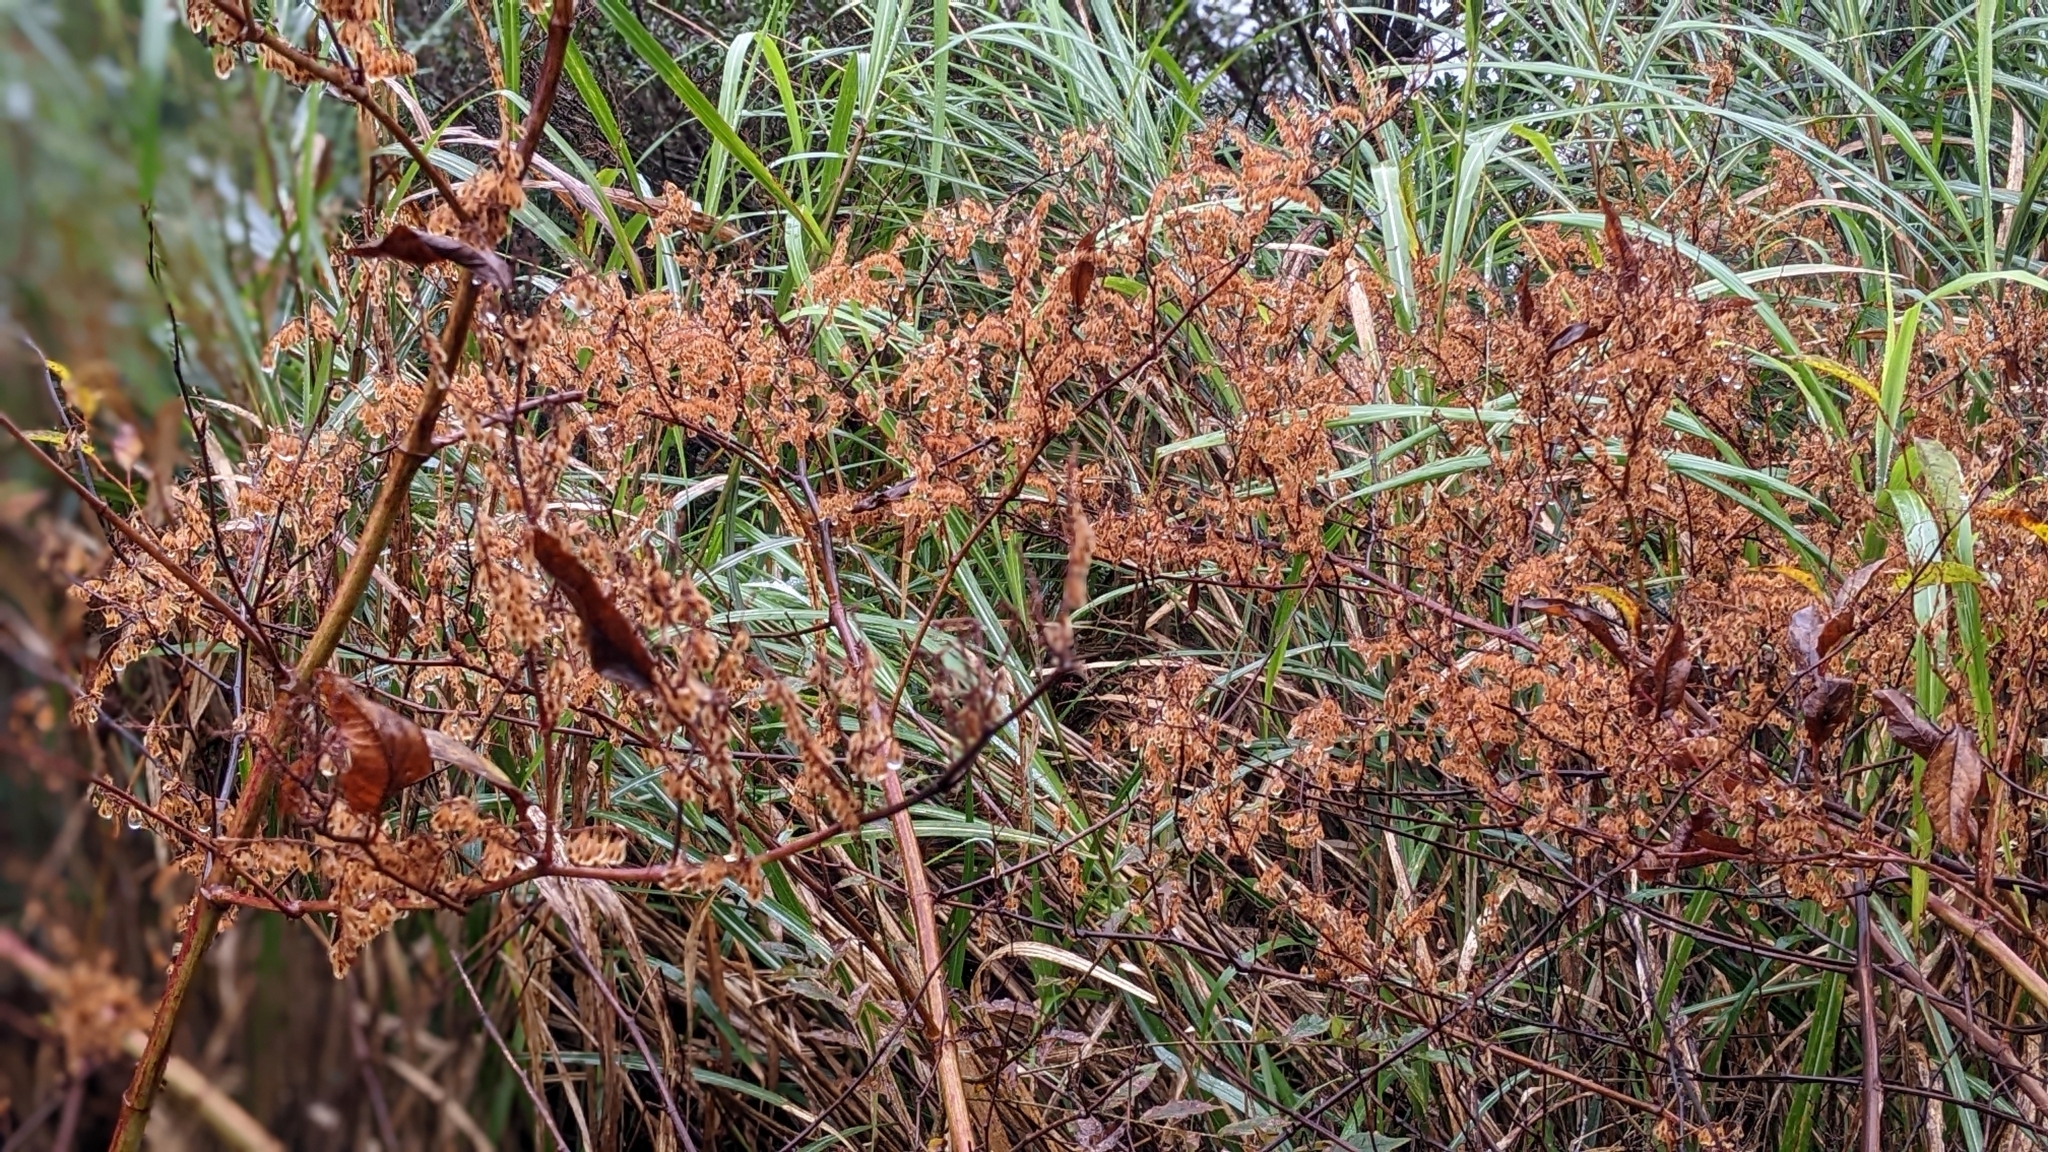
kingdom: Plantae
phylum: Tracheophyta
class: Magnoliopsida
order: Caryophyllales
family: Polygonaceae
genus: Reynoutria
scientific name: Reynoutria japonica
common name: Japanese knotweed
